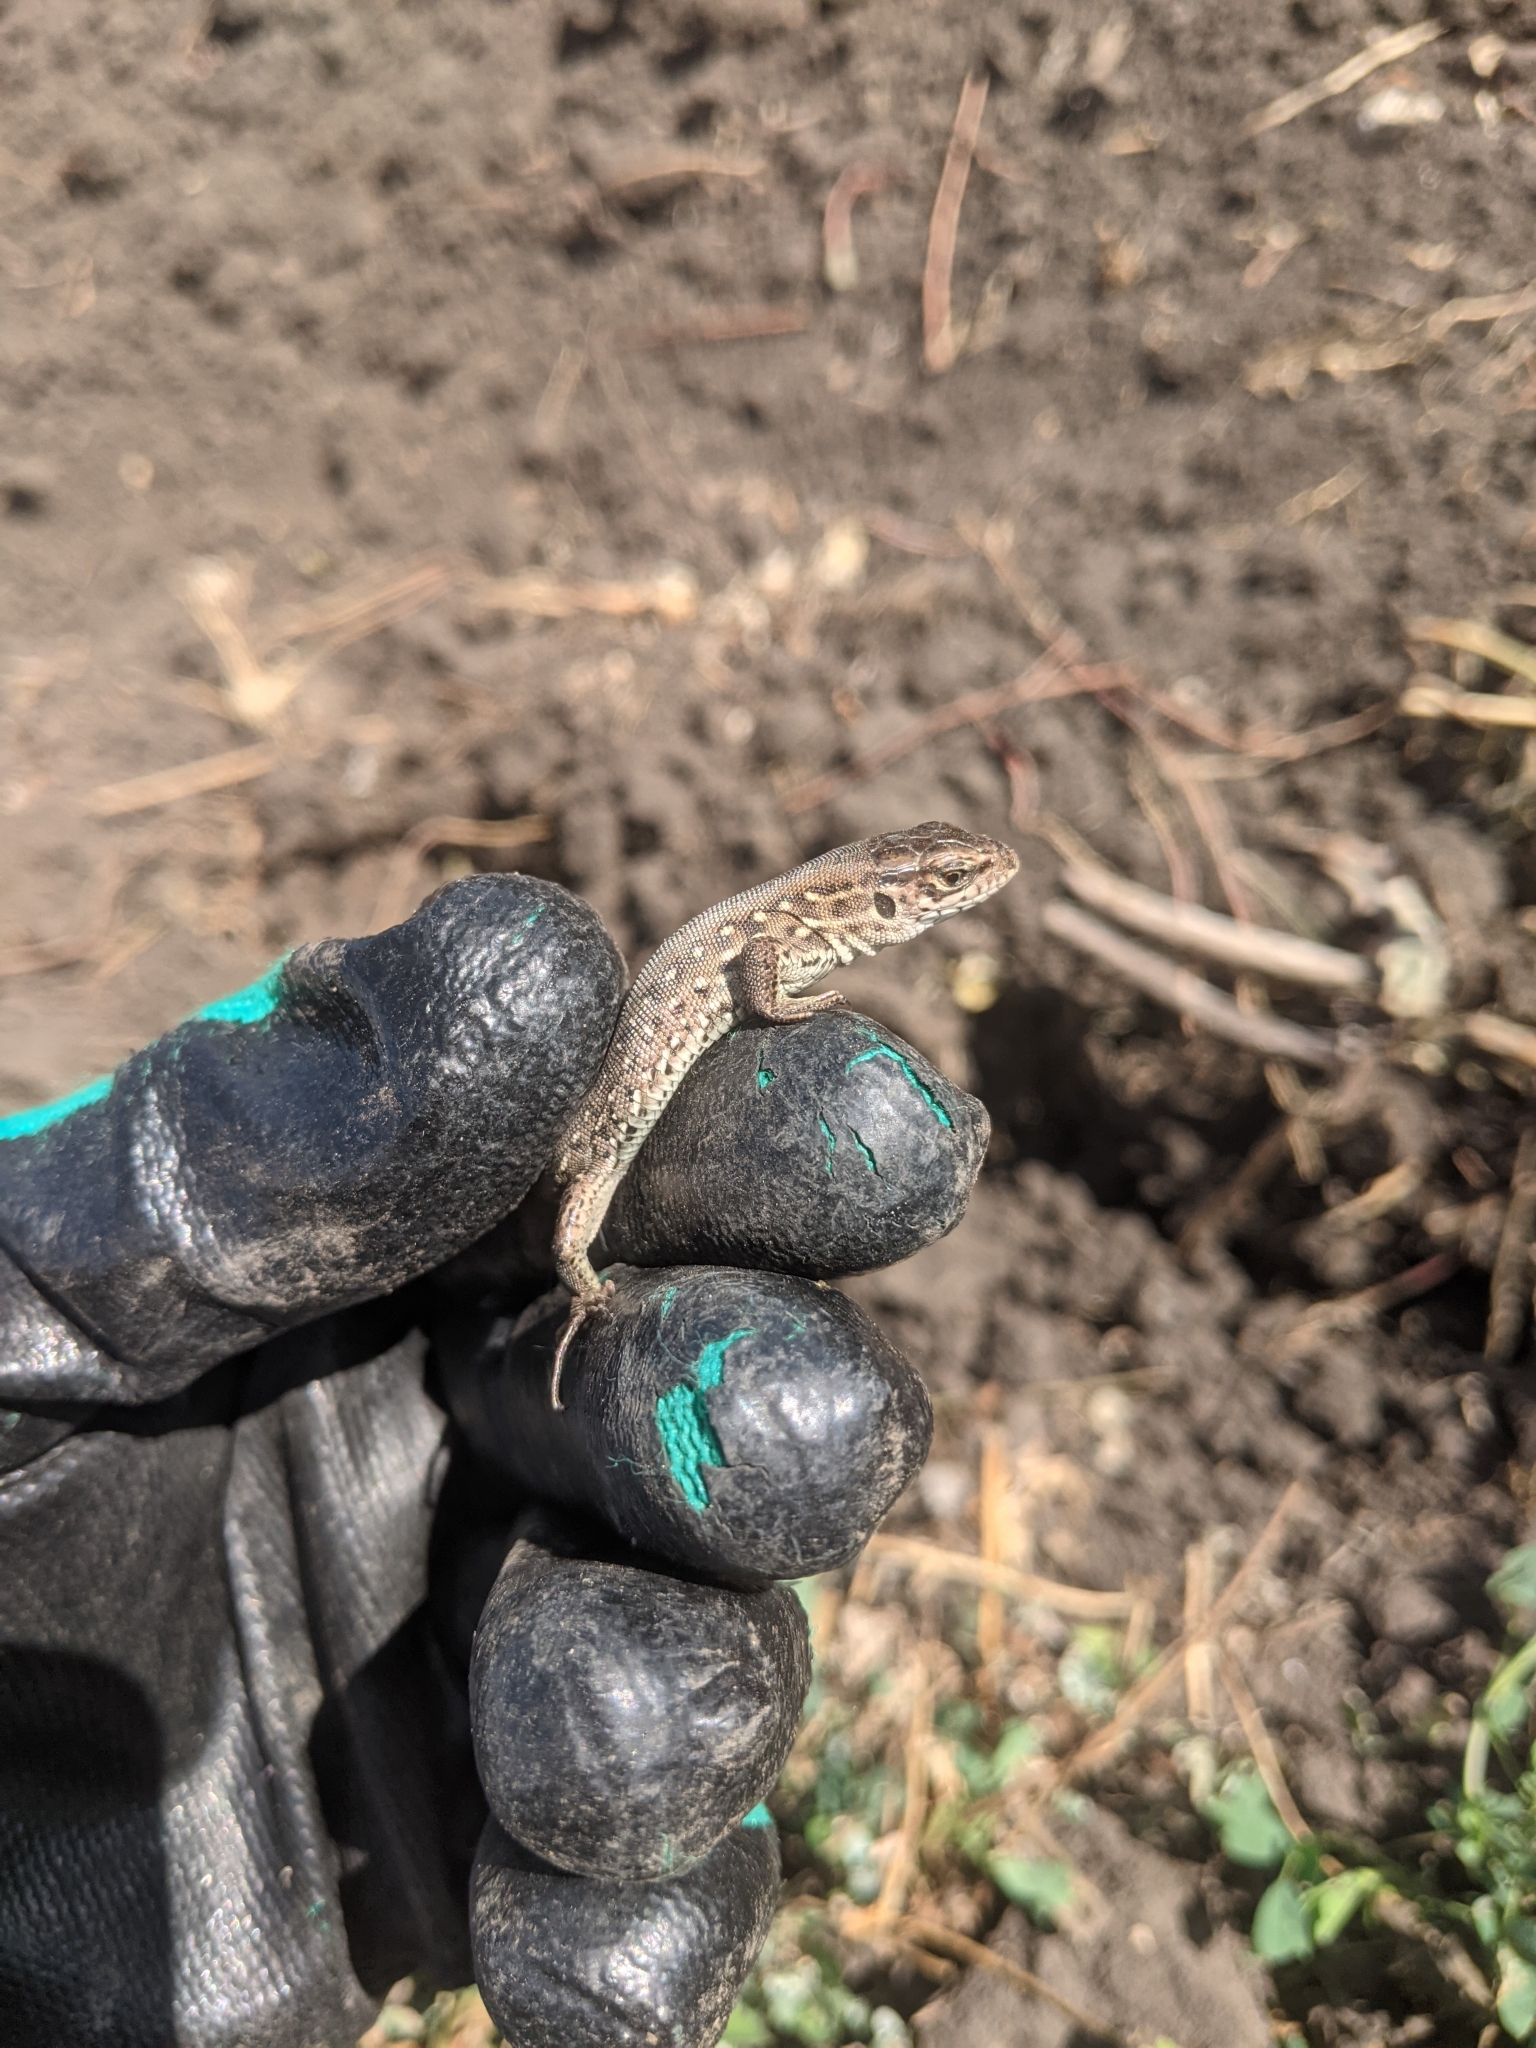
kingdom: Animalia
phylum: Chordata
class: Squamata
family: Lacertidae
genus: Lacerta
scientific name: Lacerta agilis
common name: Sand lizard
